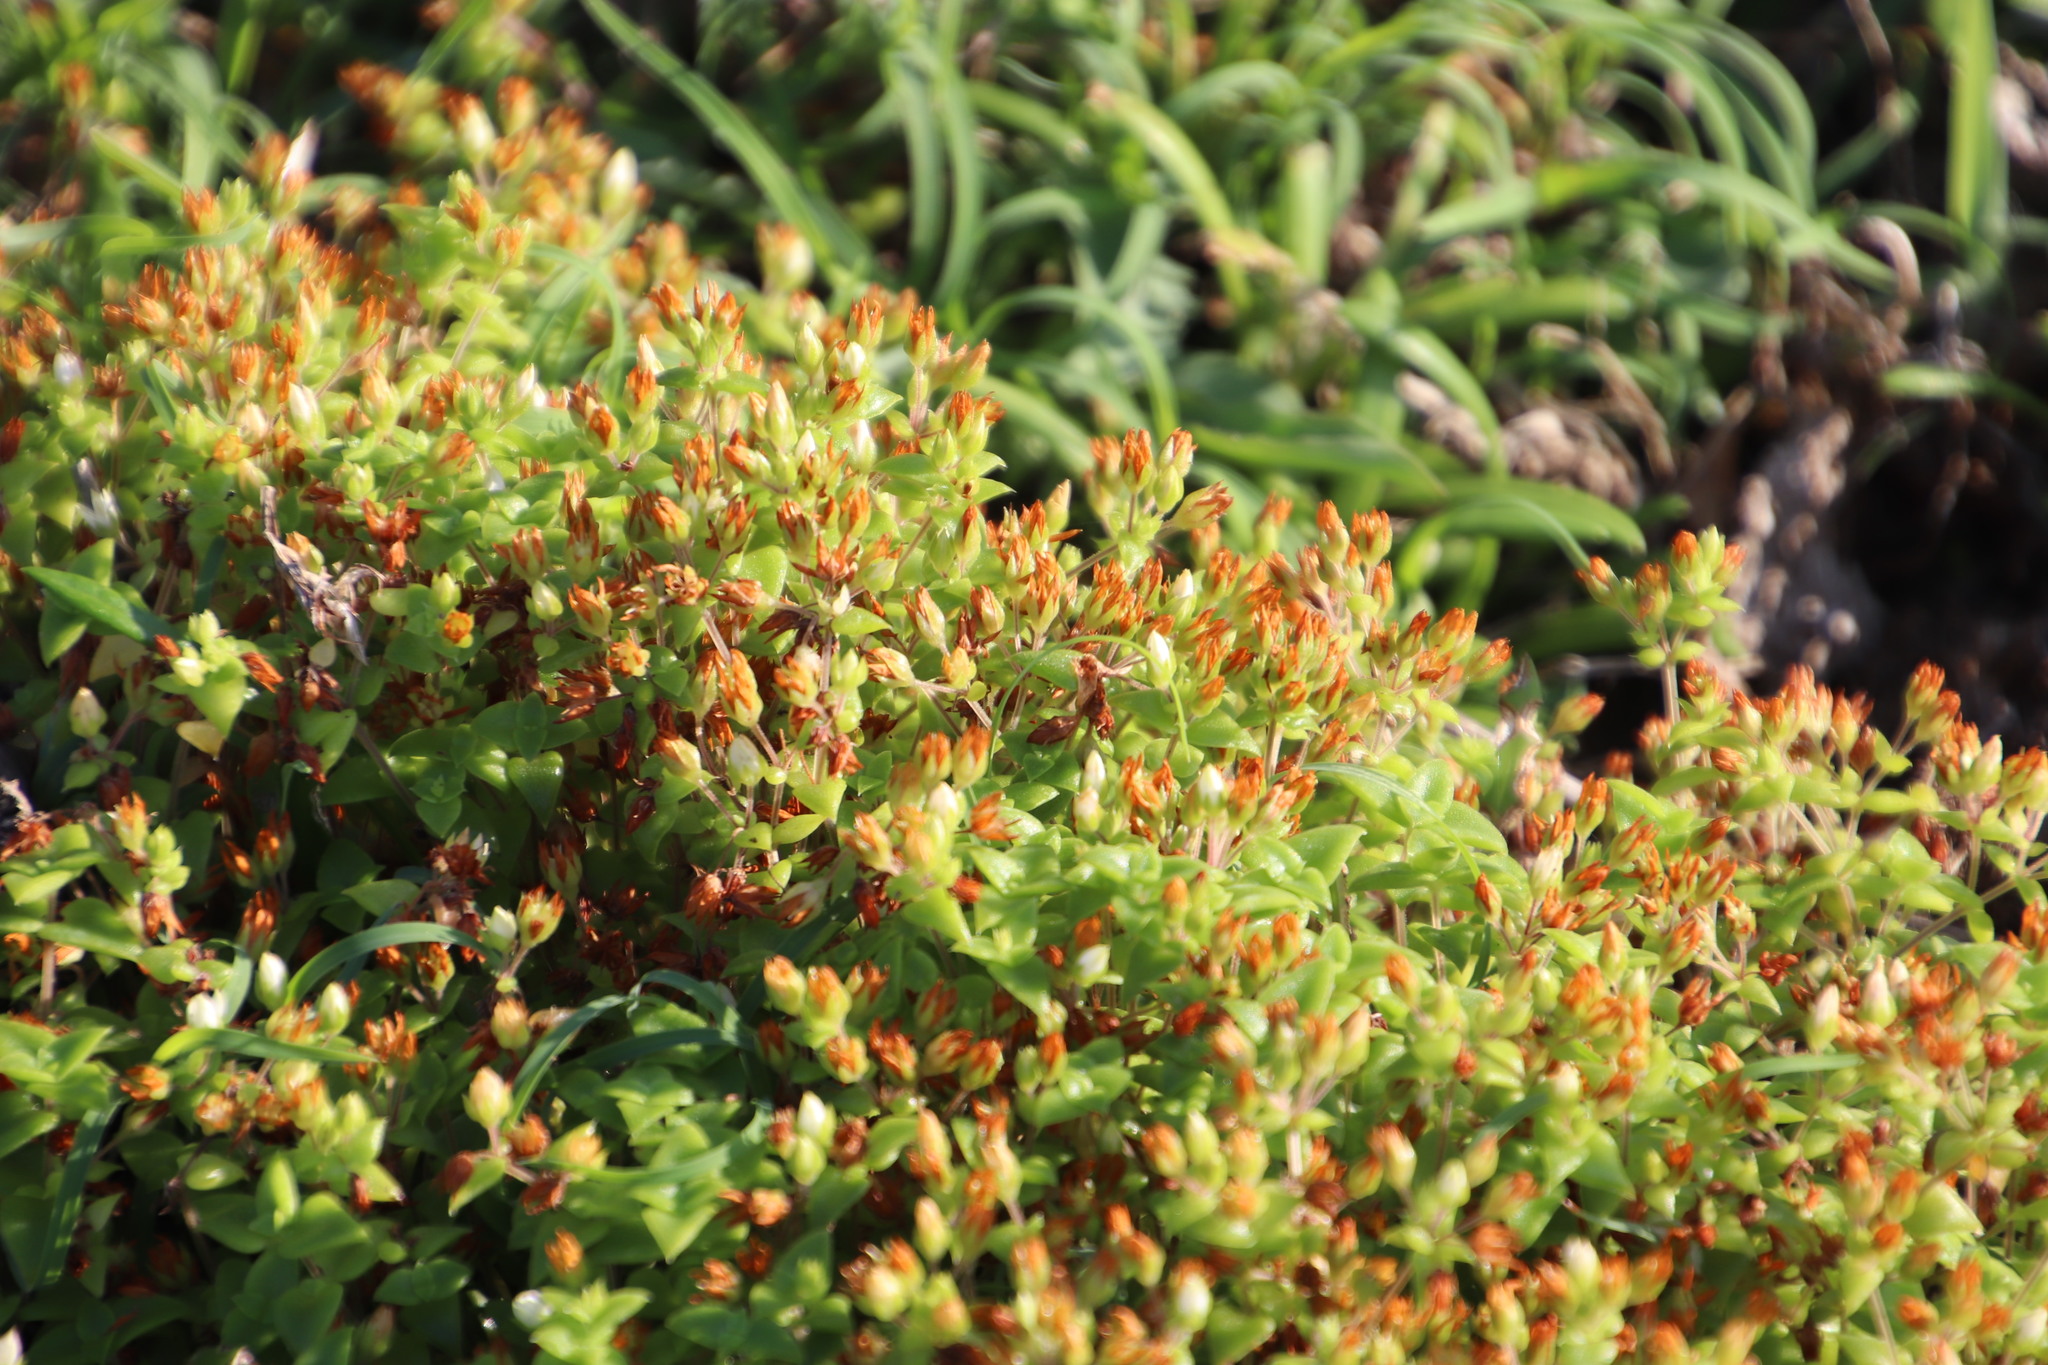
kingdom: Plantae
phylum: Tracheophyta
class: Magnoliopsida
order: Saxifragales
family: Crassulaceae
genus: Crassula
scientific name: Crassula pellucida
